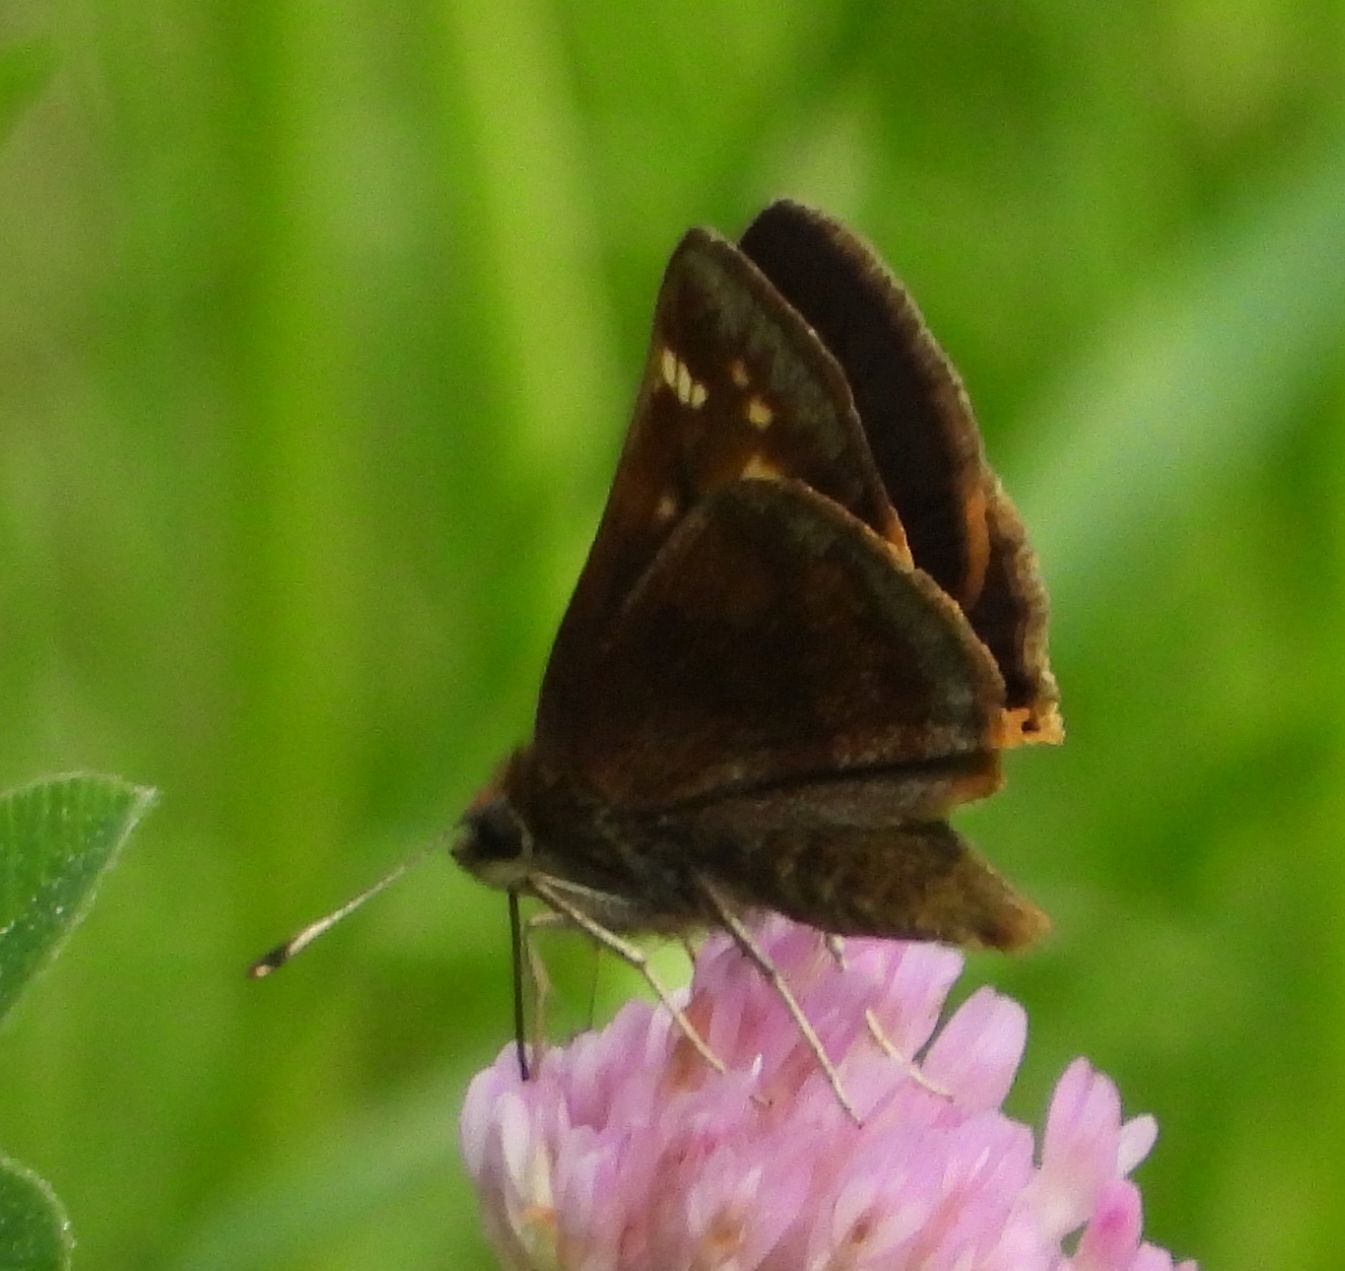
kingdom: Animalia
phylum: Arthropoda
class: Insecta
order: Lepidoptera
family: Hesperiidae
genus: Lon
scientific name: Lon hobomok
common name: Hobomok skipper
